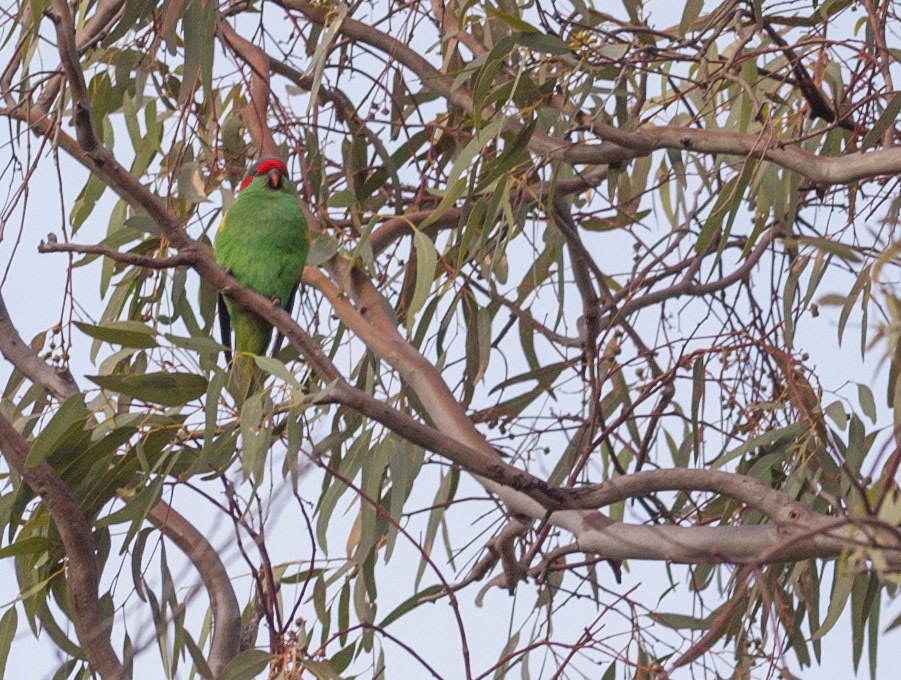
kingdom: Animalia
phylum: Chordata
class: Aves
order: Psittaciformes
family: Psittacidae
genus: Glossopsitta
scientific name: Glossopsitta concinna
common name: Musk lorikeet
